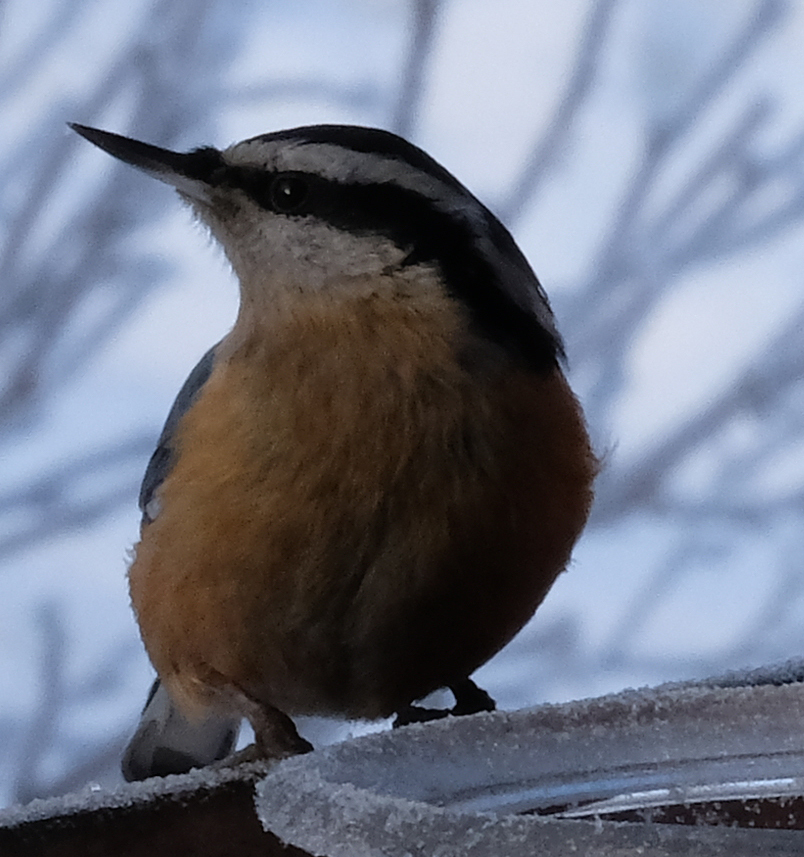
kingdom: Animalia
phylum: Chordata
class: Aves
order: Passeriformes
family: Sittidae
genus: Sitta
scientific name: Sitta canadensis
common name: Red-breasted nuthatch
